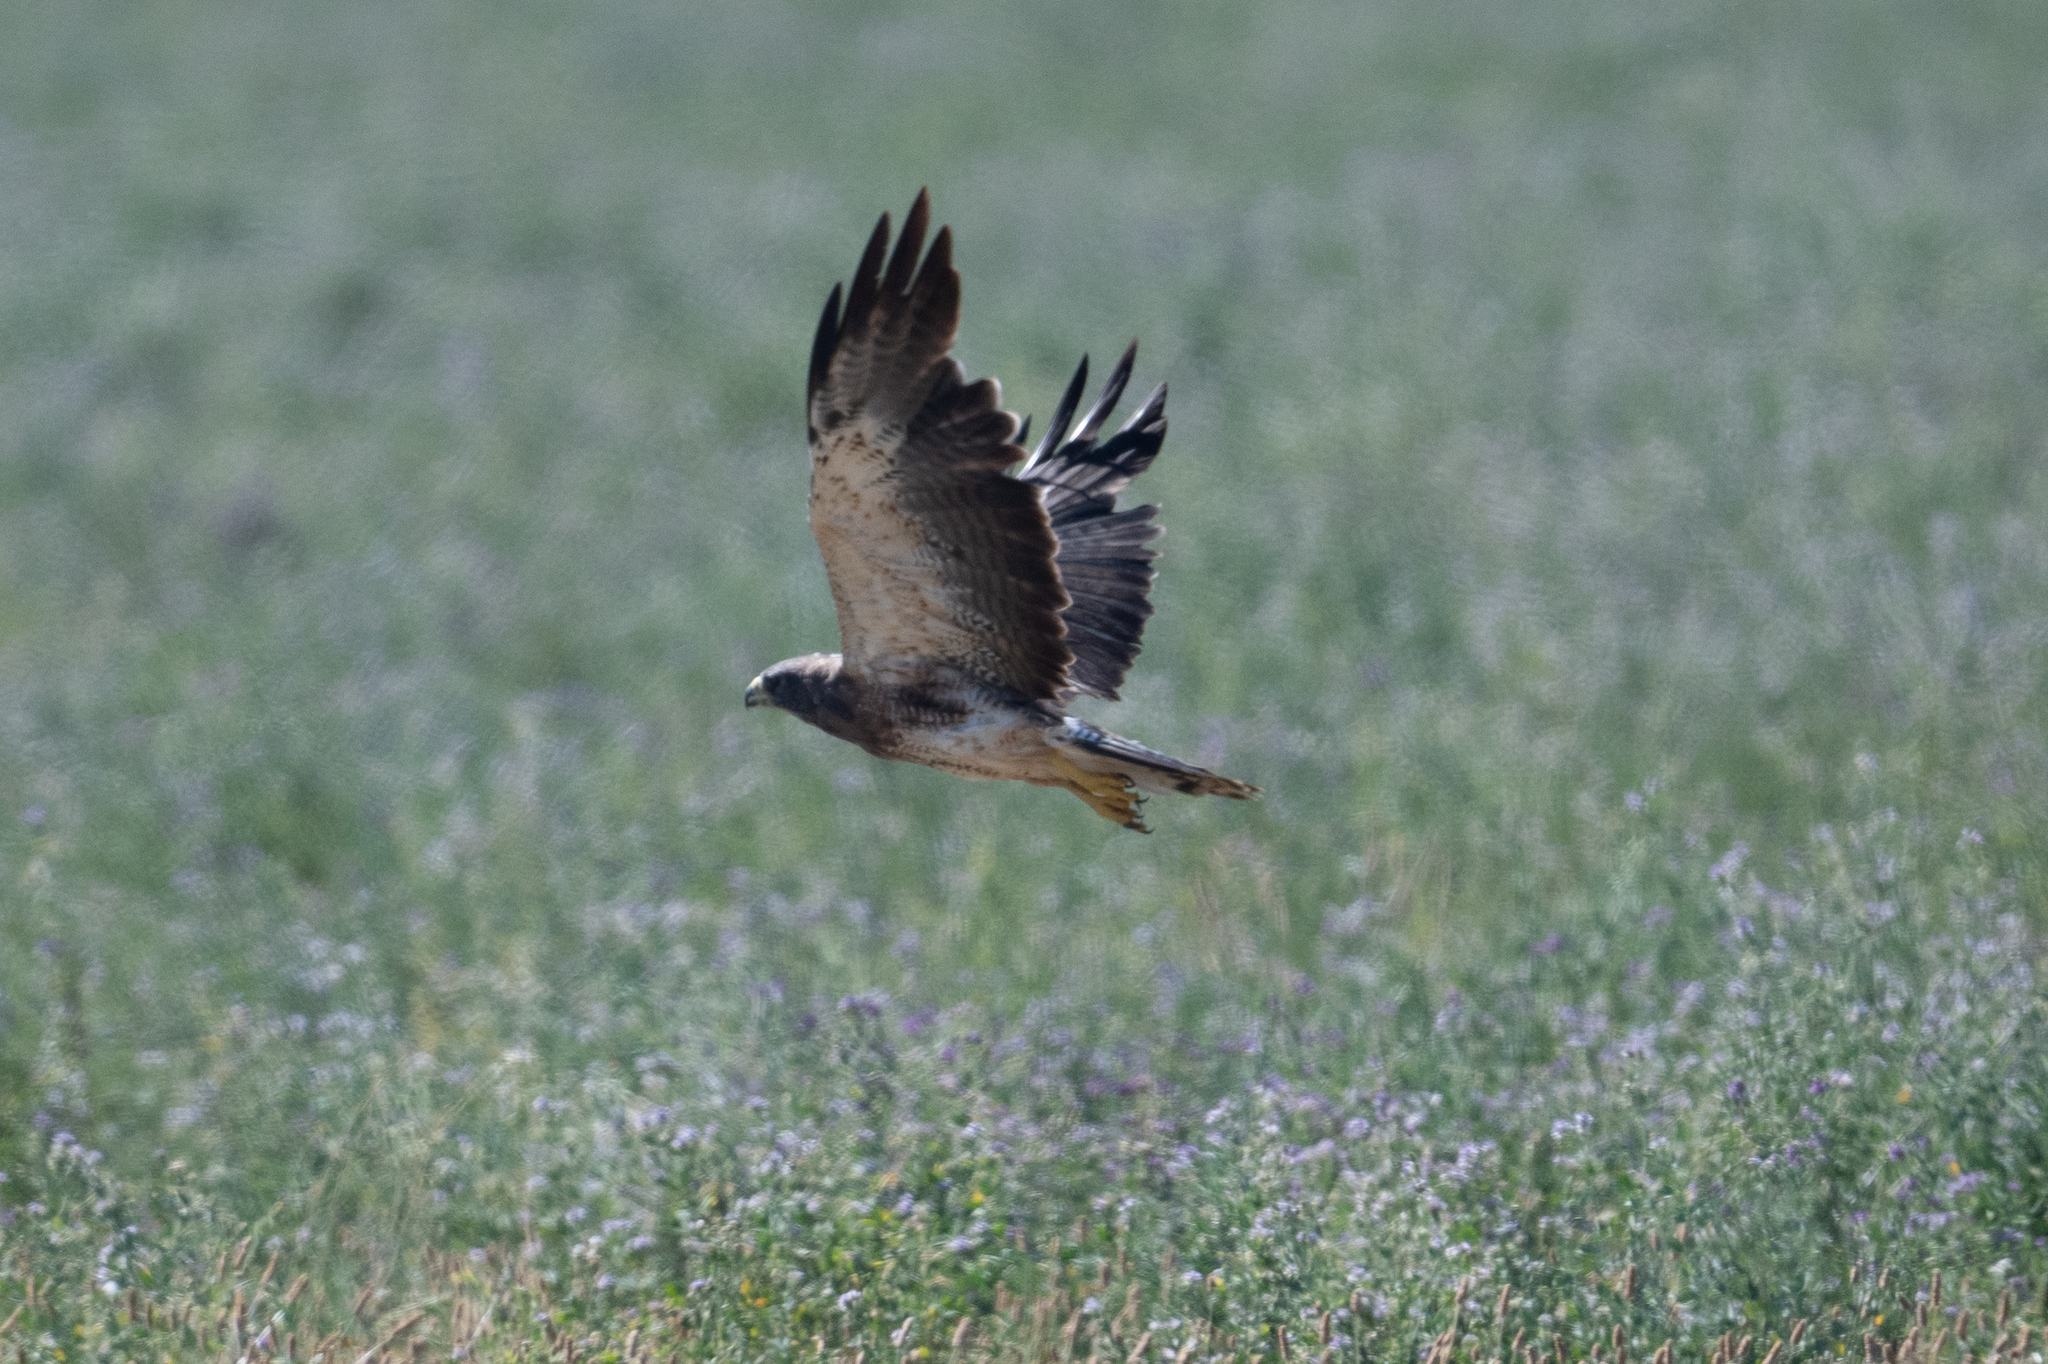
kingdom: Animalia
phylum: Chordata
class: Aves
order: Accipitriformes
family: Accipitridae
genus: Buteo
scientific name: Buteo swainsoni
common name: Swainson's hawk
